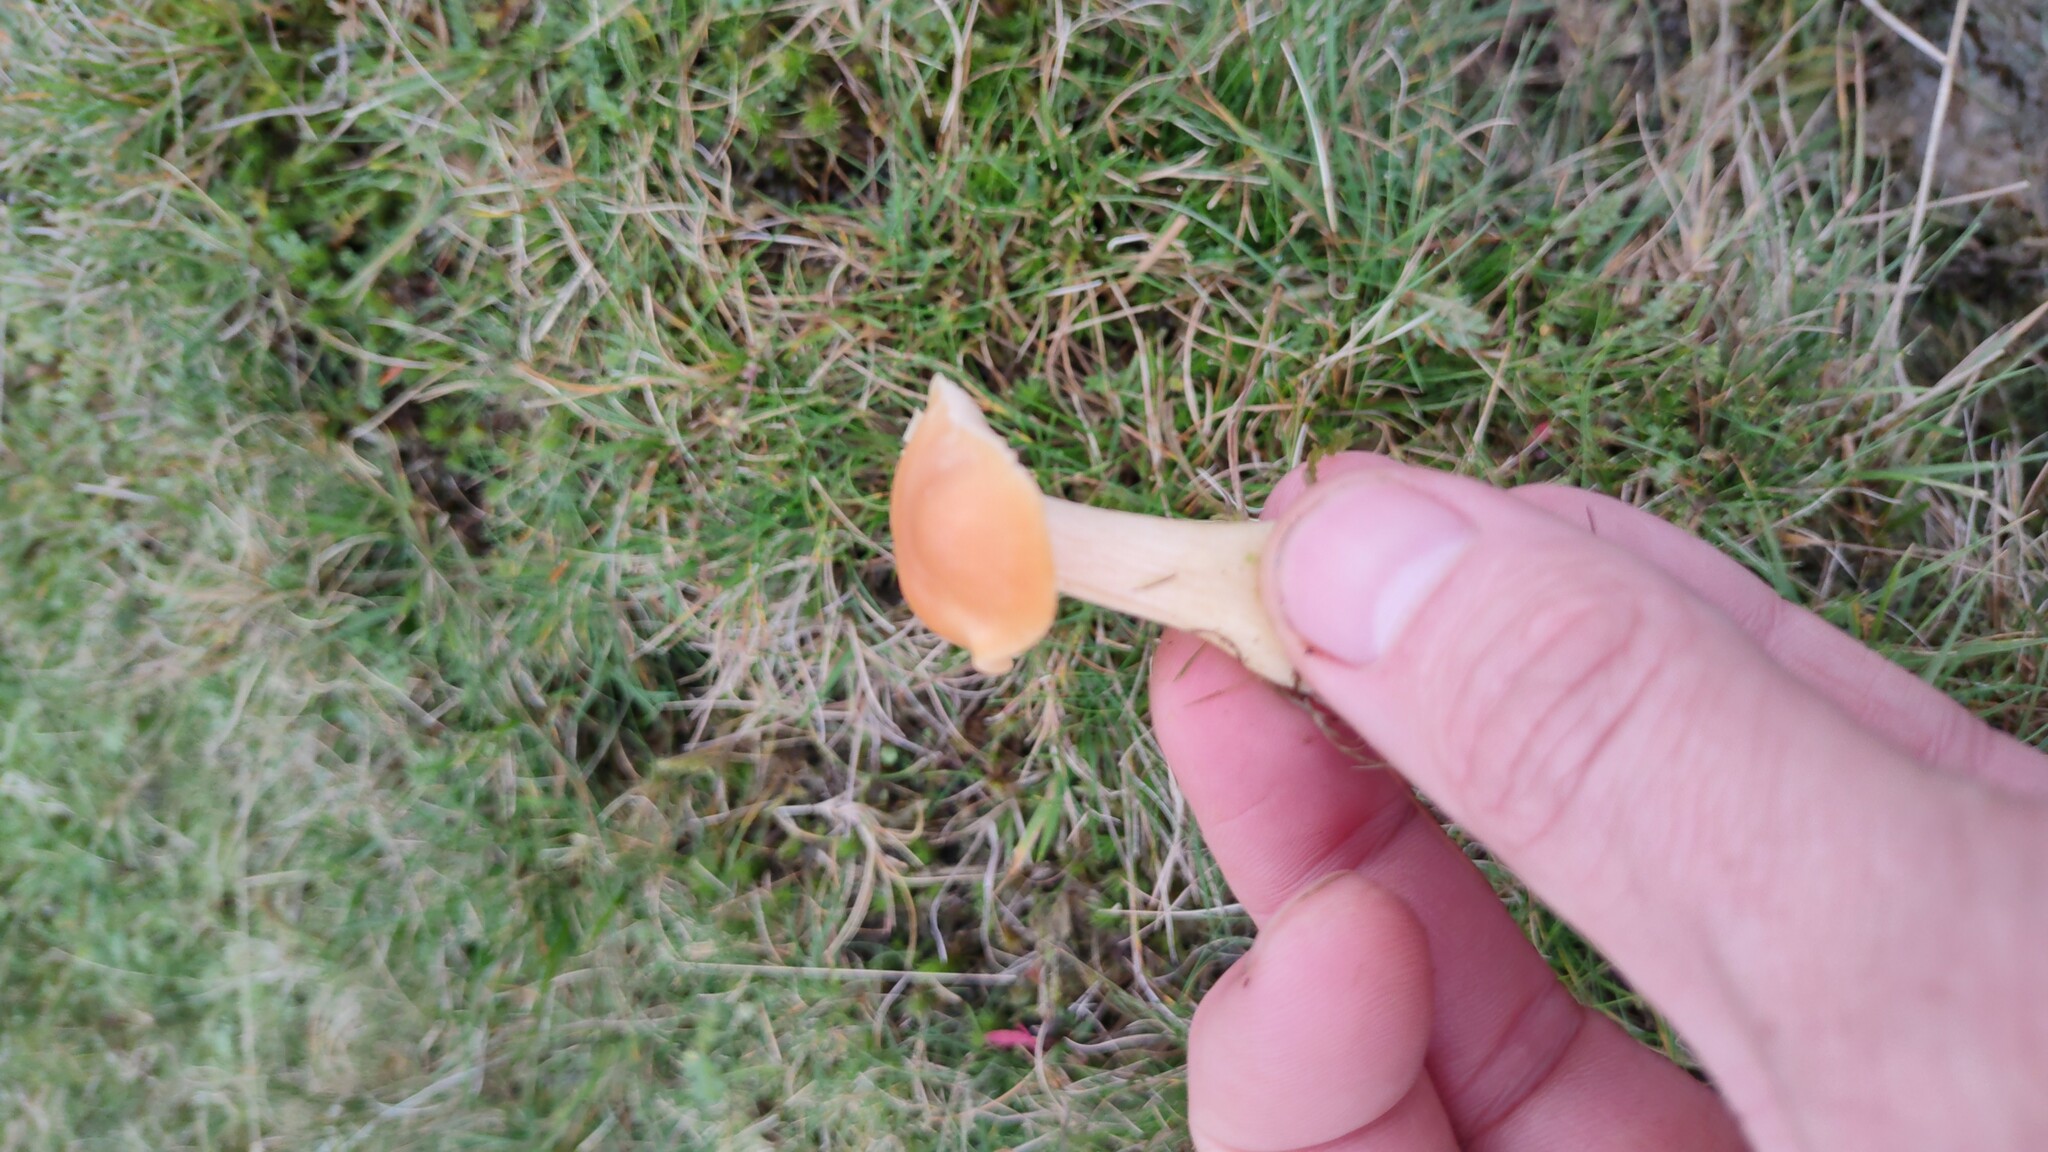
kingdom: Fungi
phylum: Basidiomycota
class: Agaricomycetes
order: Agaricales
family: Hygrophoraceae
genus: Cuphophyllus
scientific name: Cuphophyllus pratensis
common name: Meadow waxcap
